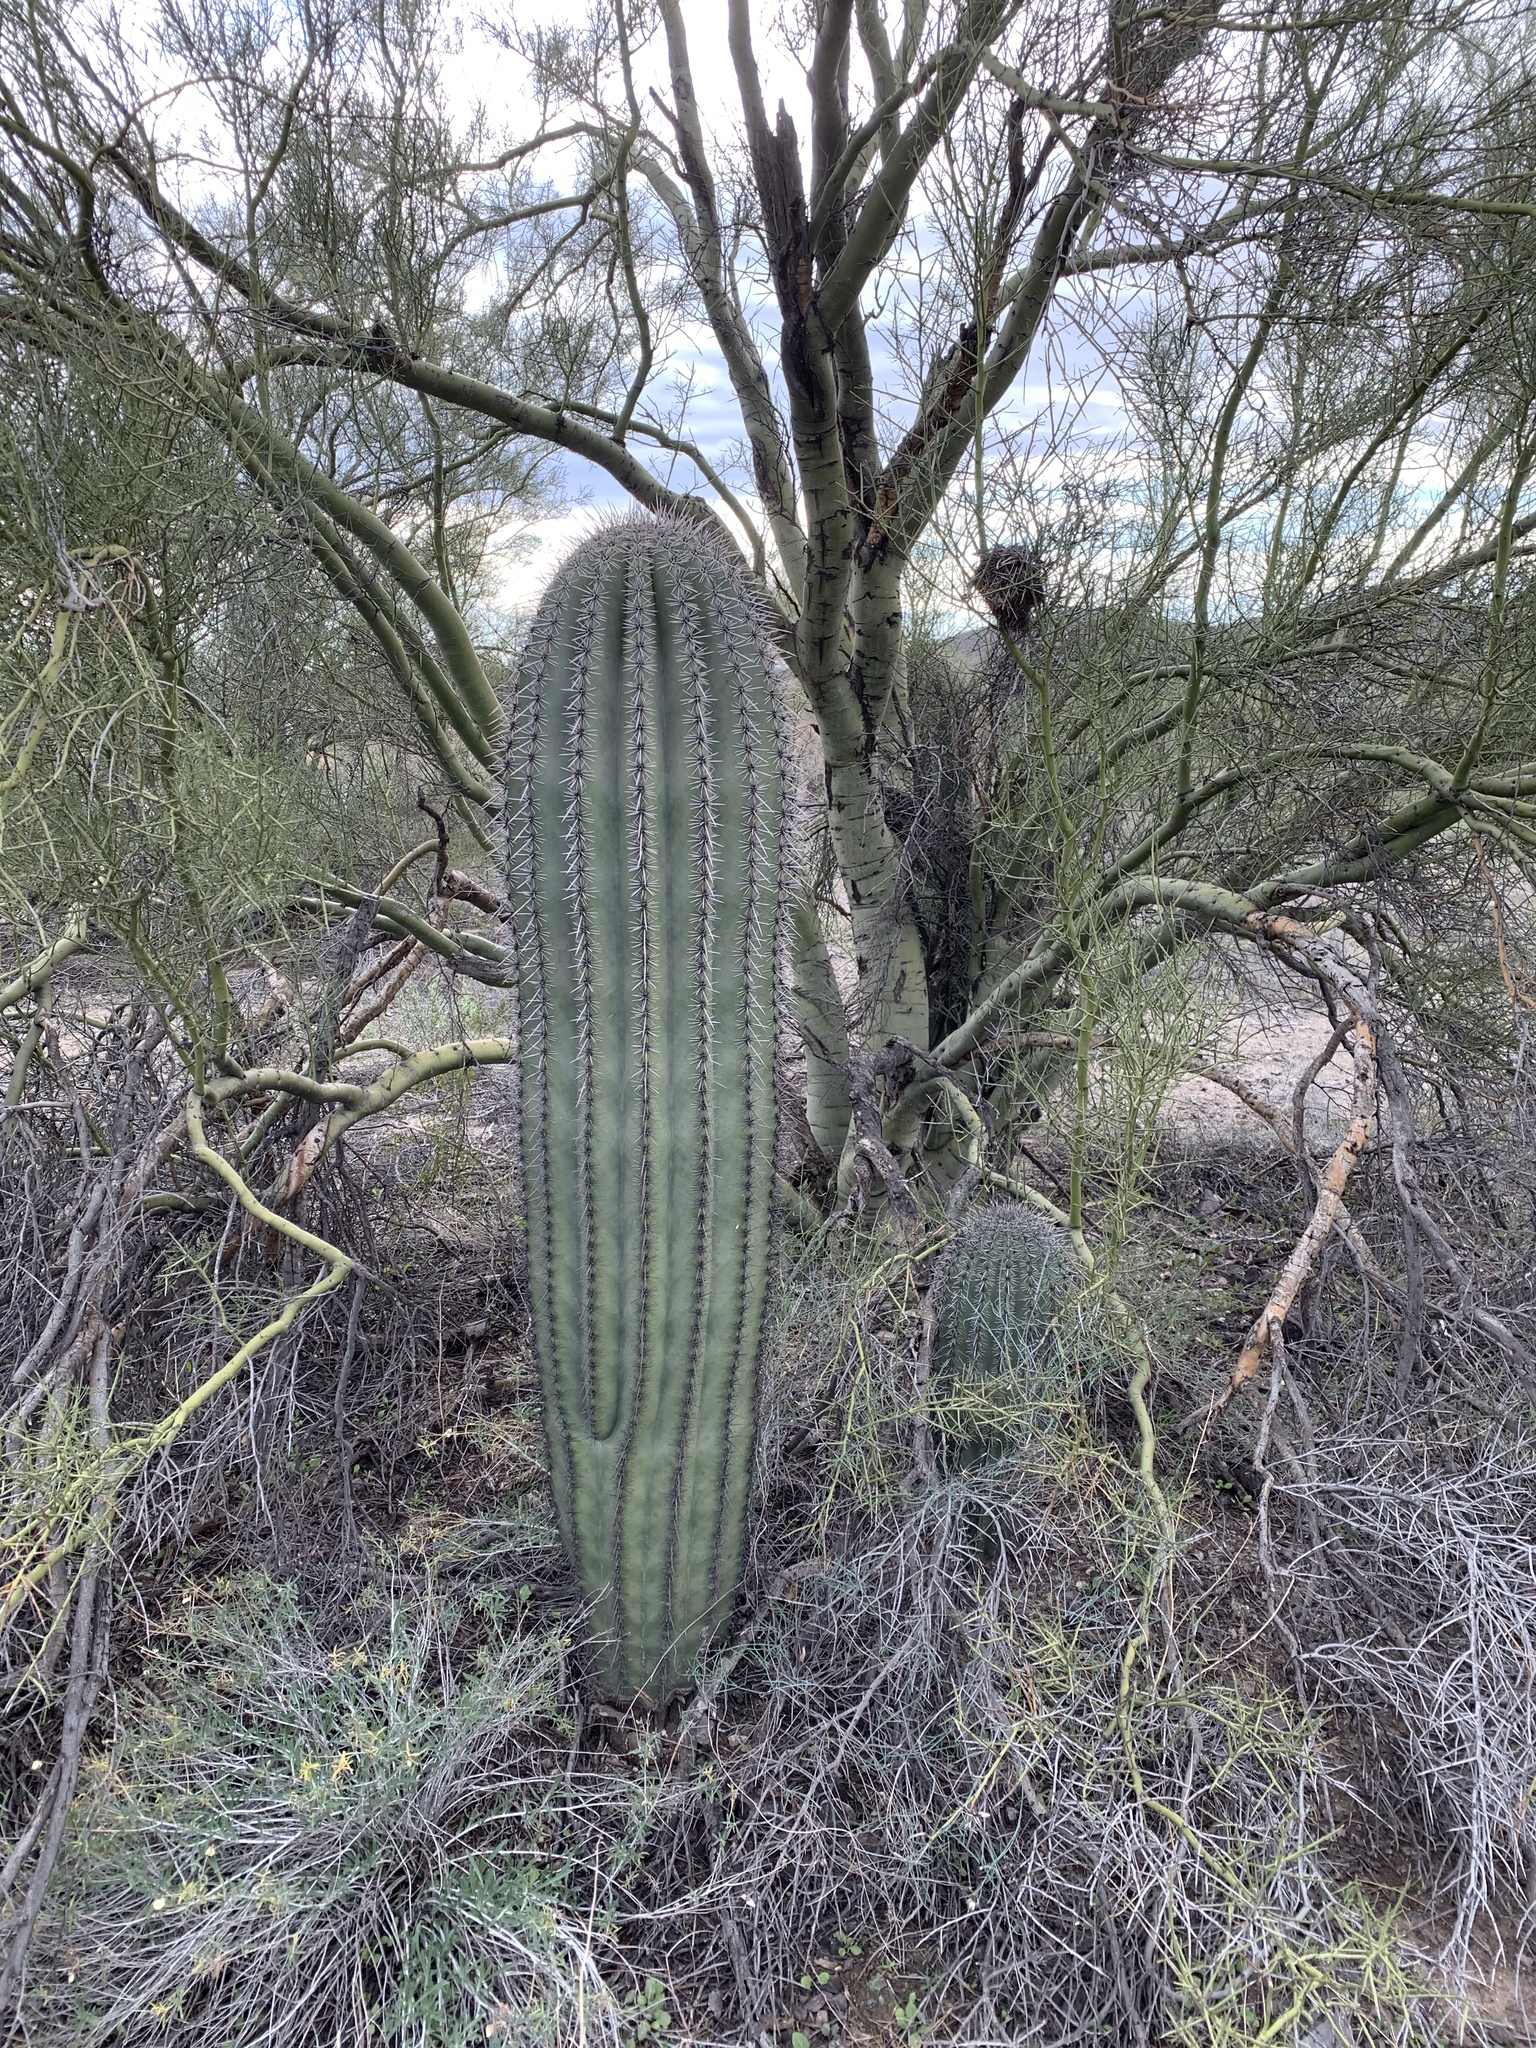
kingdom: Plantae
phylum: Tracheophyta
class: Magnoliopsida
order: Caryophyllales
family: Cactaceae
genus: Carnegiea
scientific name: Carnegiea gigantea
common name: Saguaro
